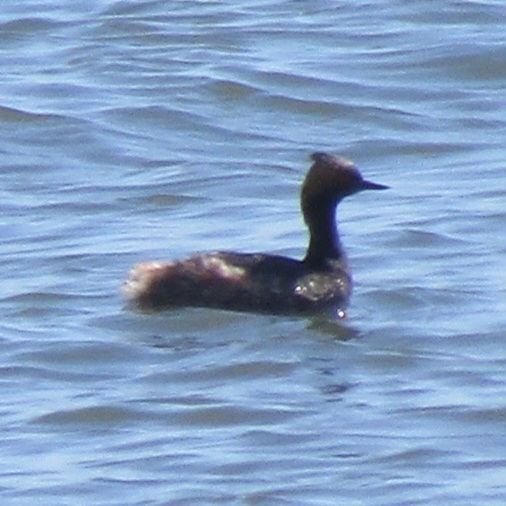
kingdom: Animalia
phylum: Chordata
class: Aves
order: Podicipediformes
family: Podicipedidae
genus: Podiceps
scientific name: Podiceps nigricollis
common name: Black-necked grebe
